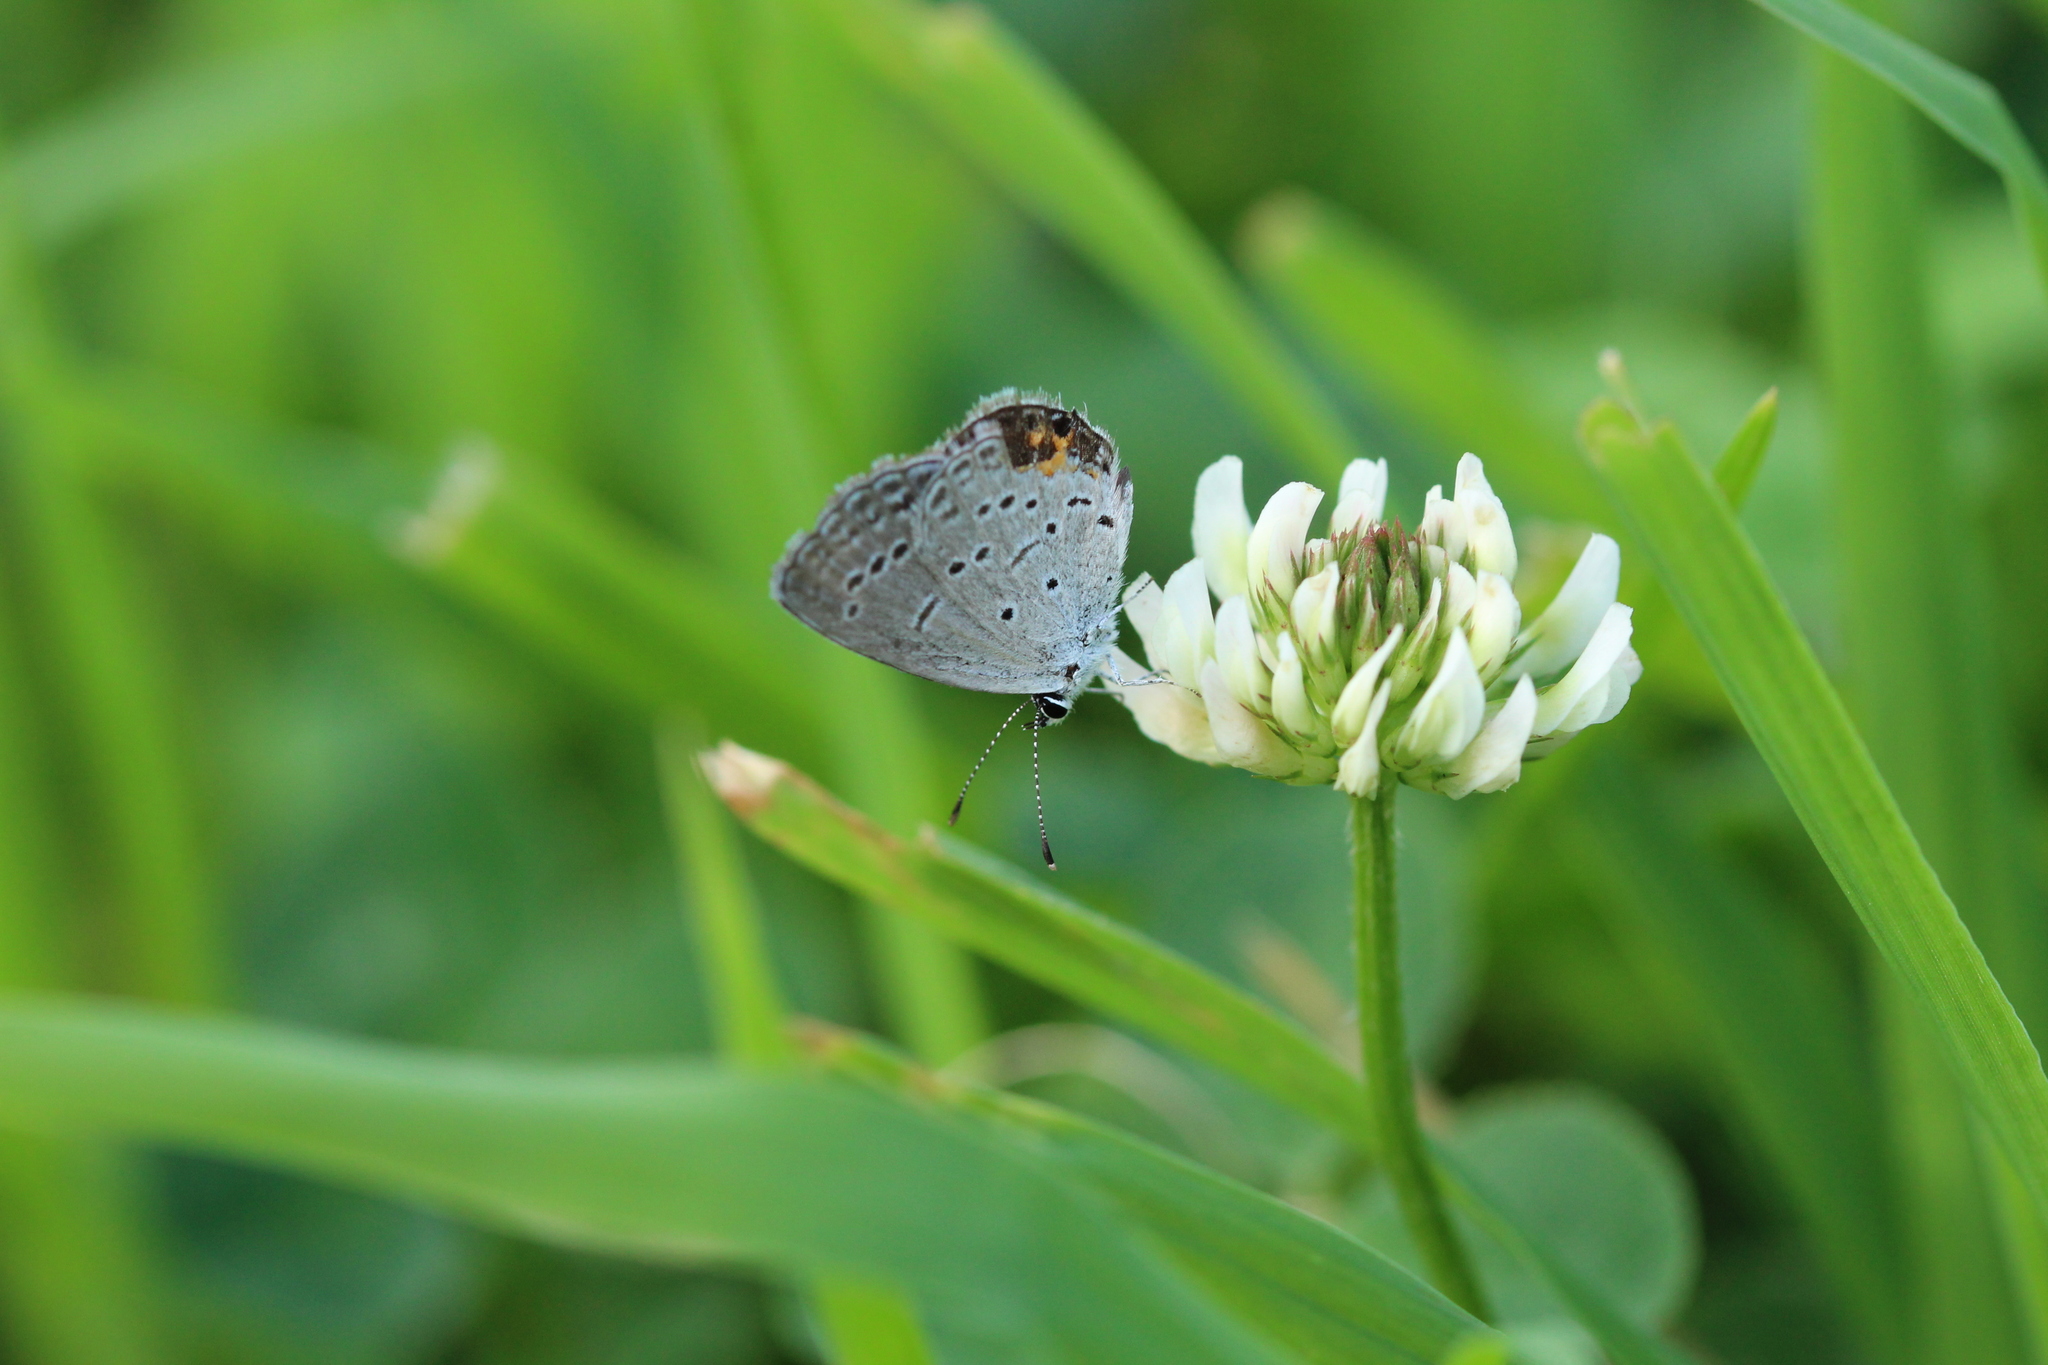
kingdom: Animalia
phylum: Arthropoda
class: Insecta
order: Lepidoptera
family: Lycaenidae
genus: Elkalyce
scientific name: Elkalyce comyntas
